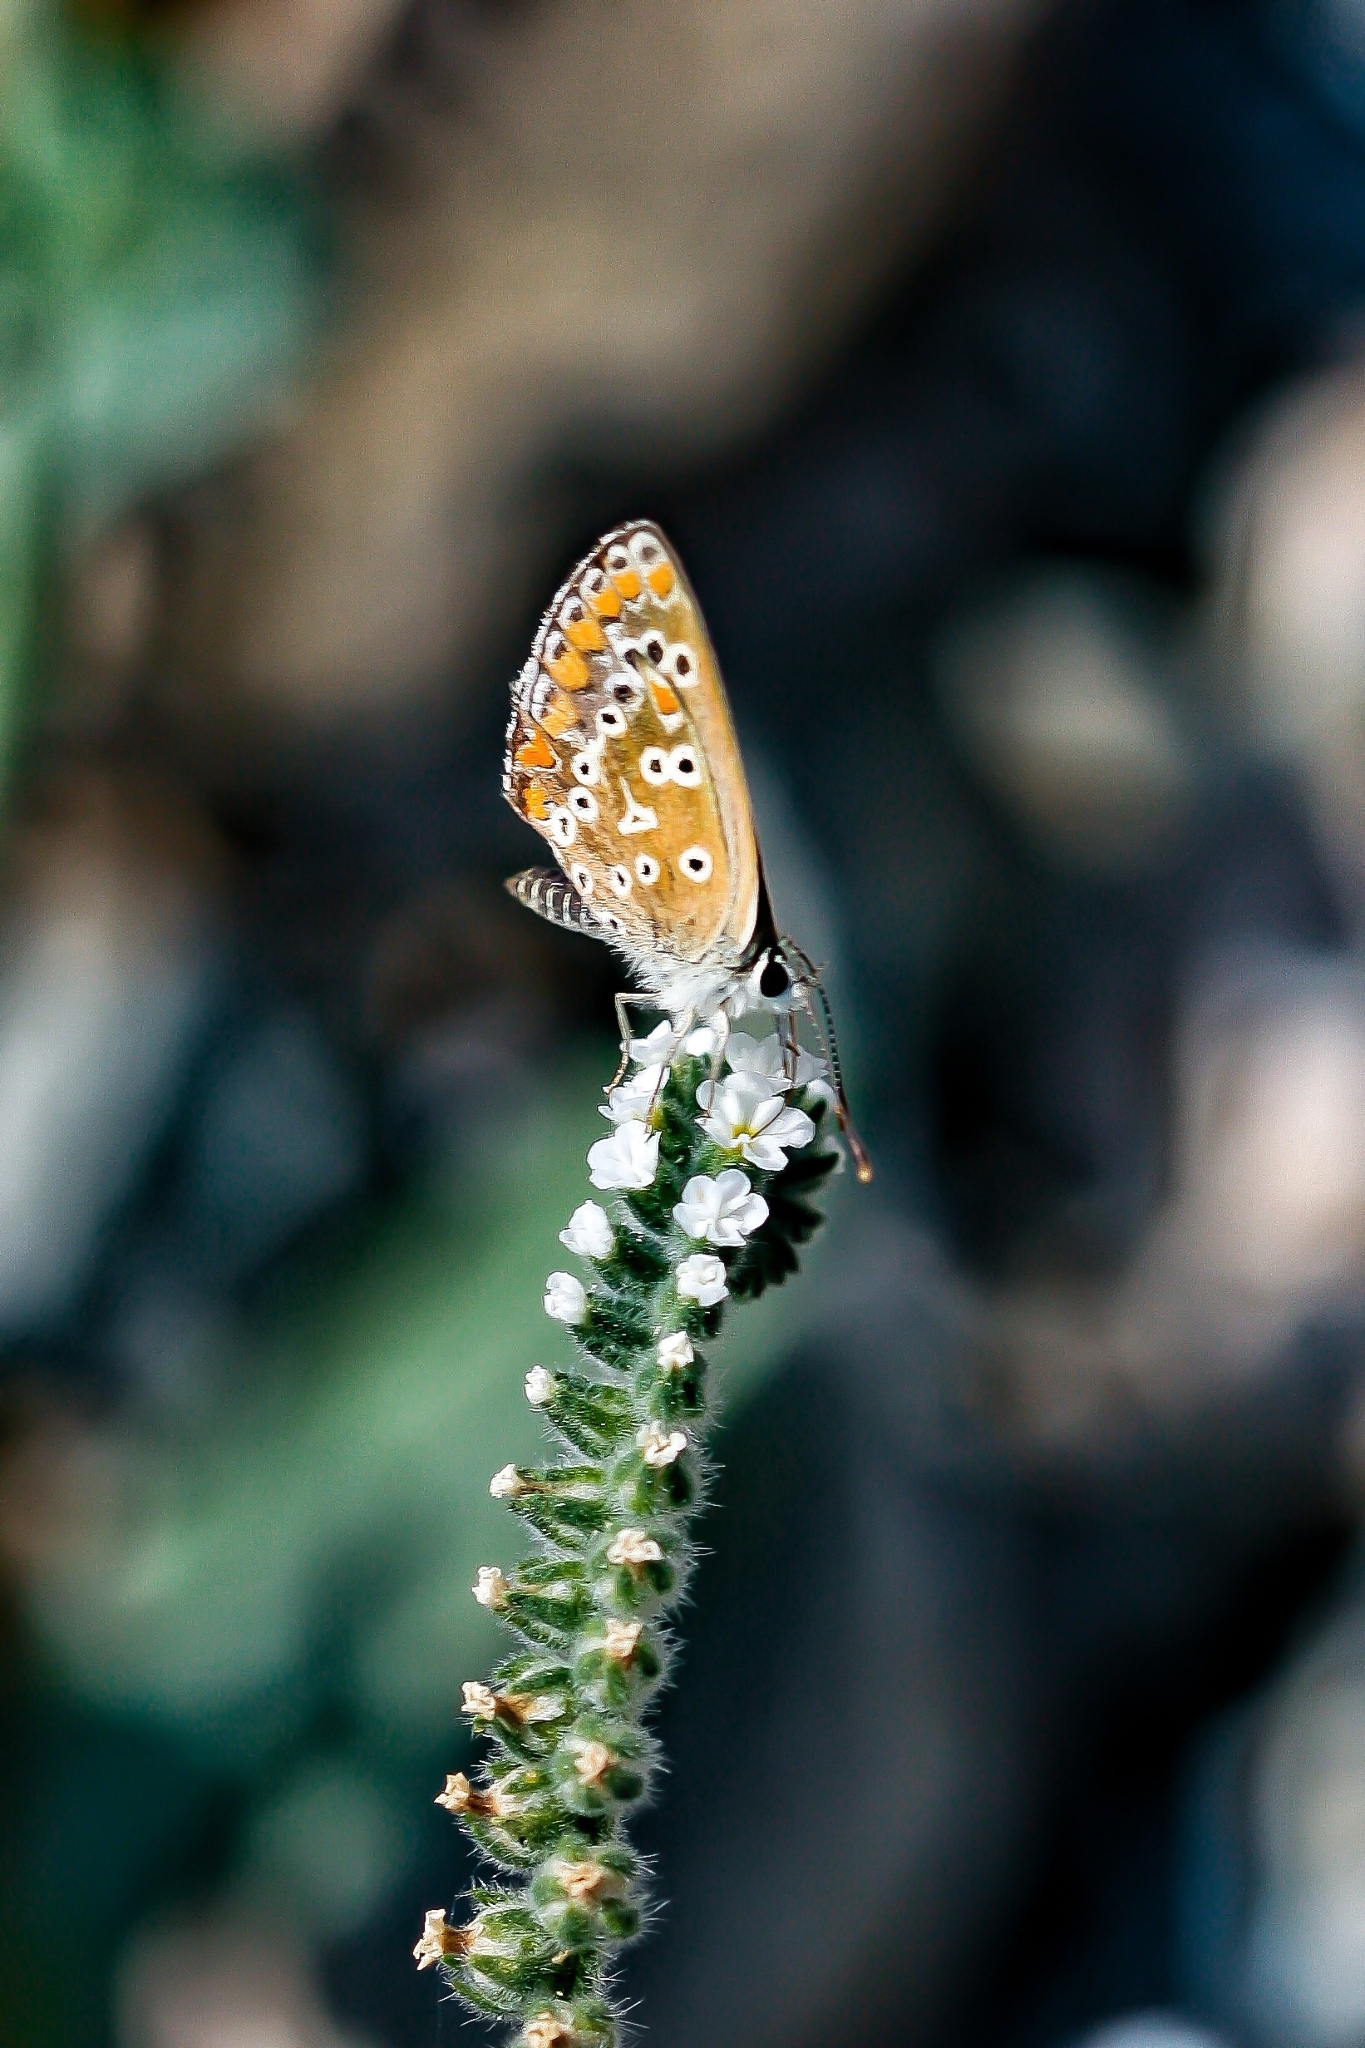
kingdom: Animalia
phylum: Arthropoda
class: Insecta
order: Lepidoptera
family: Lycaenidae
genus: Aricia
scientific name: Aricia cramera
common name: Eschscholtz´s brown  argus
